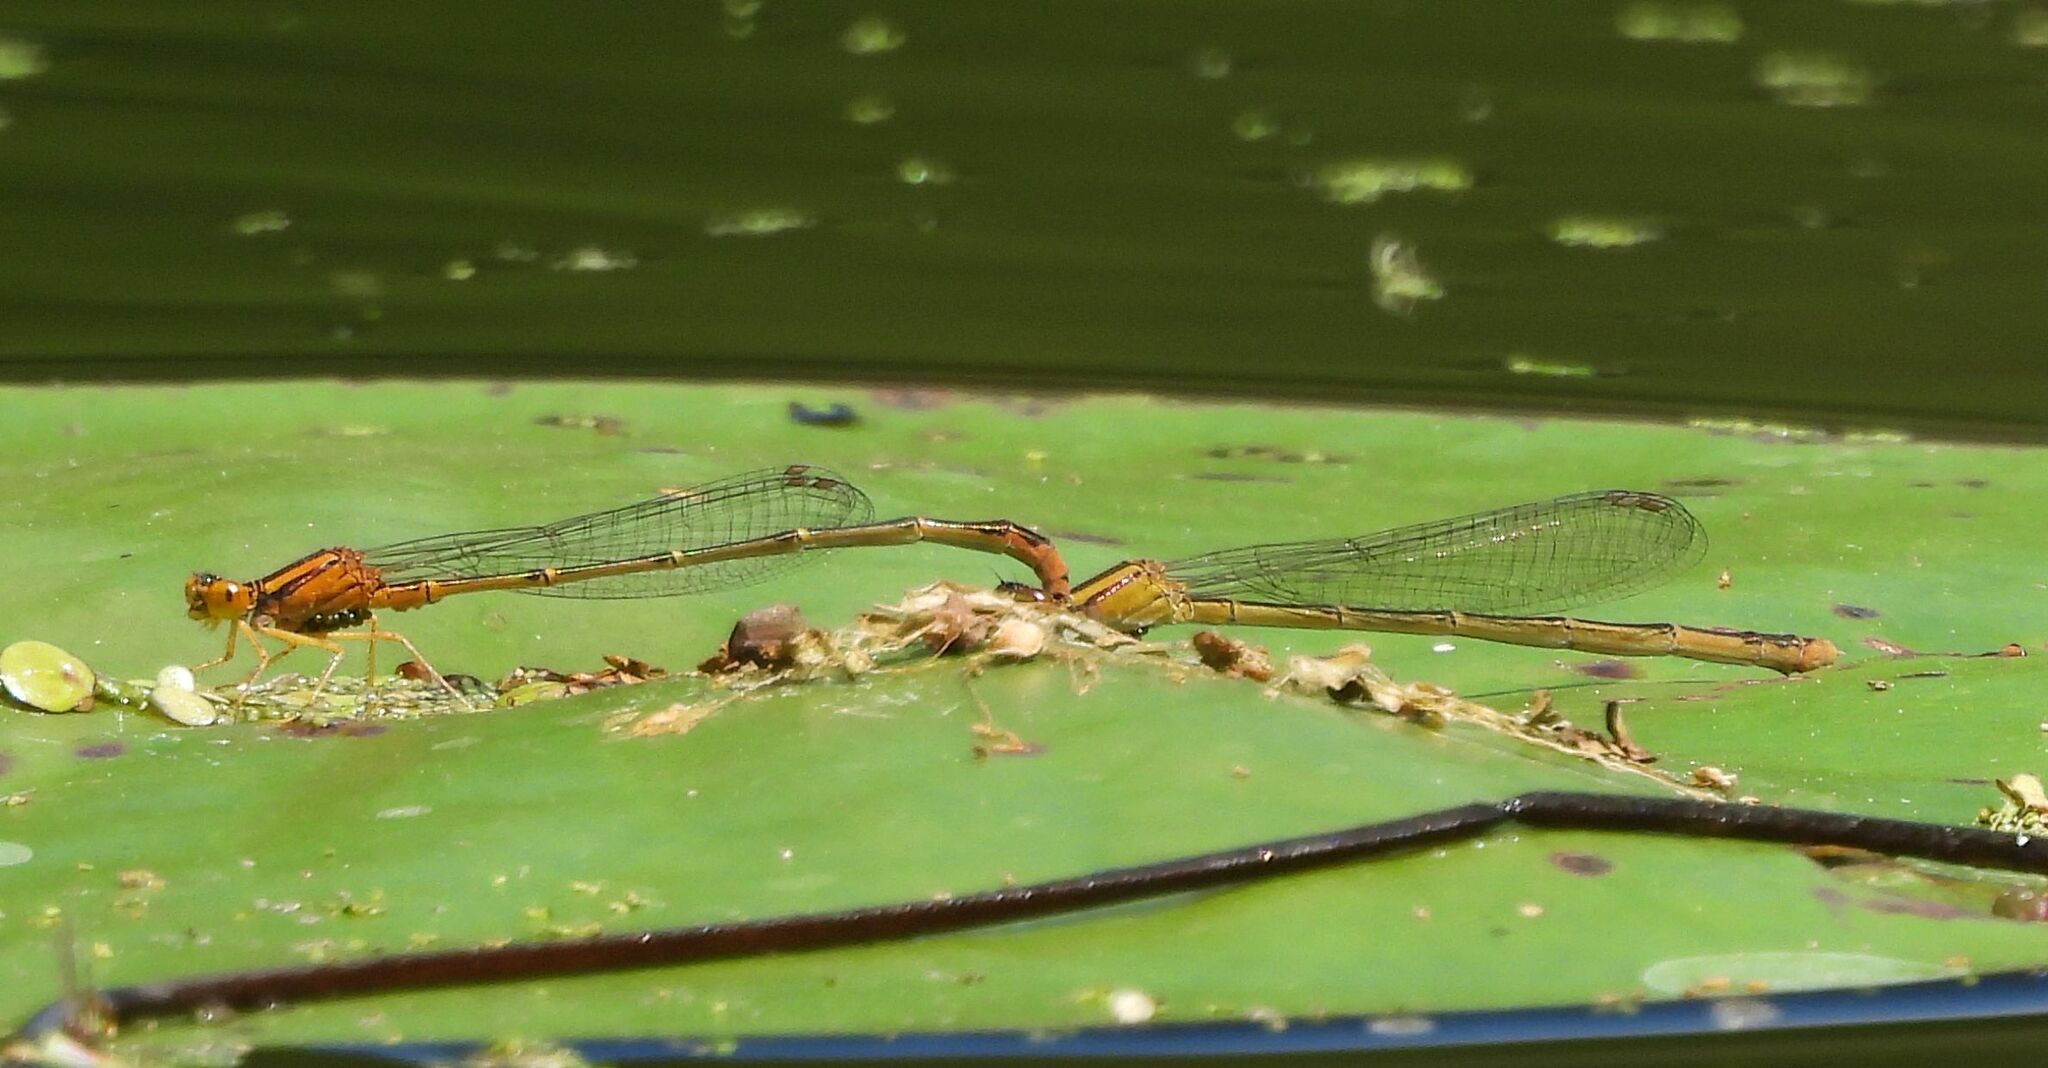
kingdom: Animalia
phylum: Arthropoda
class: Insecta
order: Odonata
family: Coenagrionidae
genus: Enallagma
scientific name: Enallagma signatum
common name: Orange bluet
